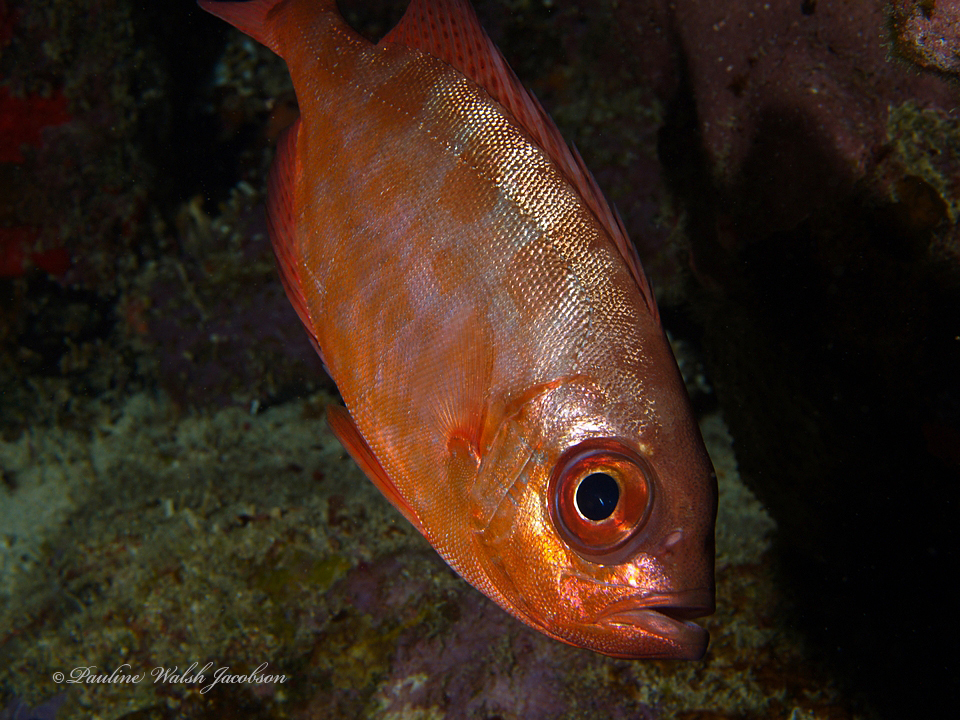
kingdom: Animalia
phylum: Chordata
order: Perciformes
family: Priacanthidae
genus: Heteropriacanthus
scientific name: Heteropriacanthus cruentatus
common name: Glasseye
